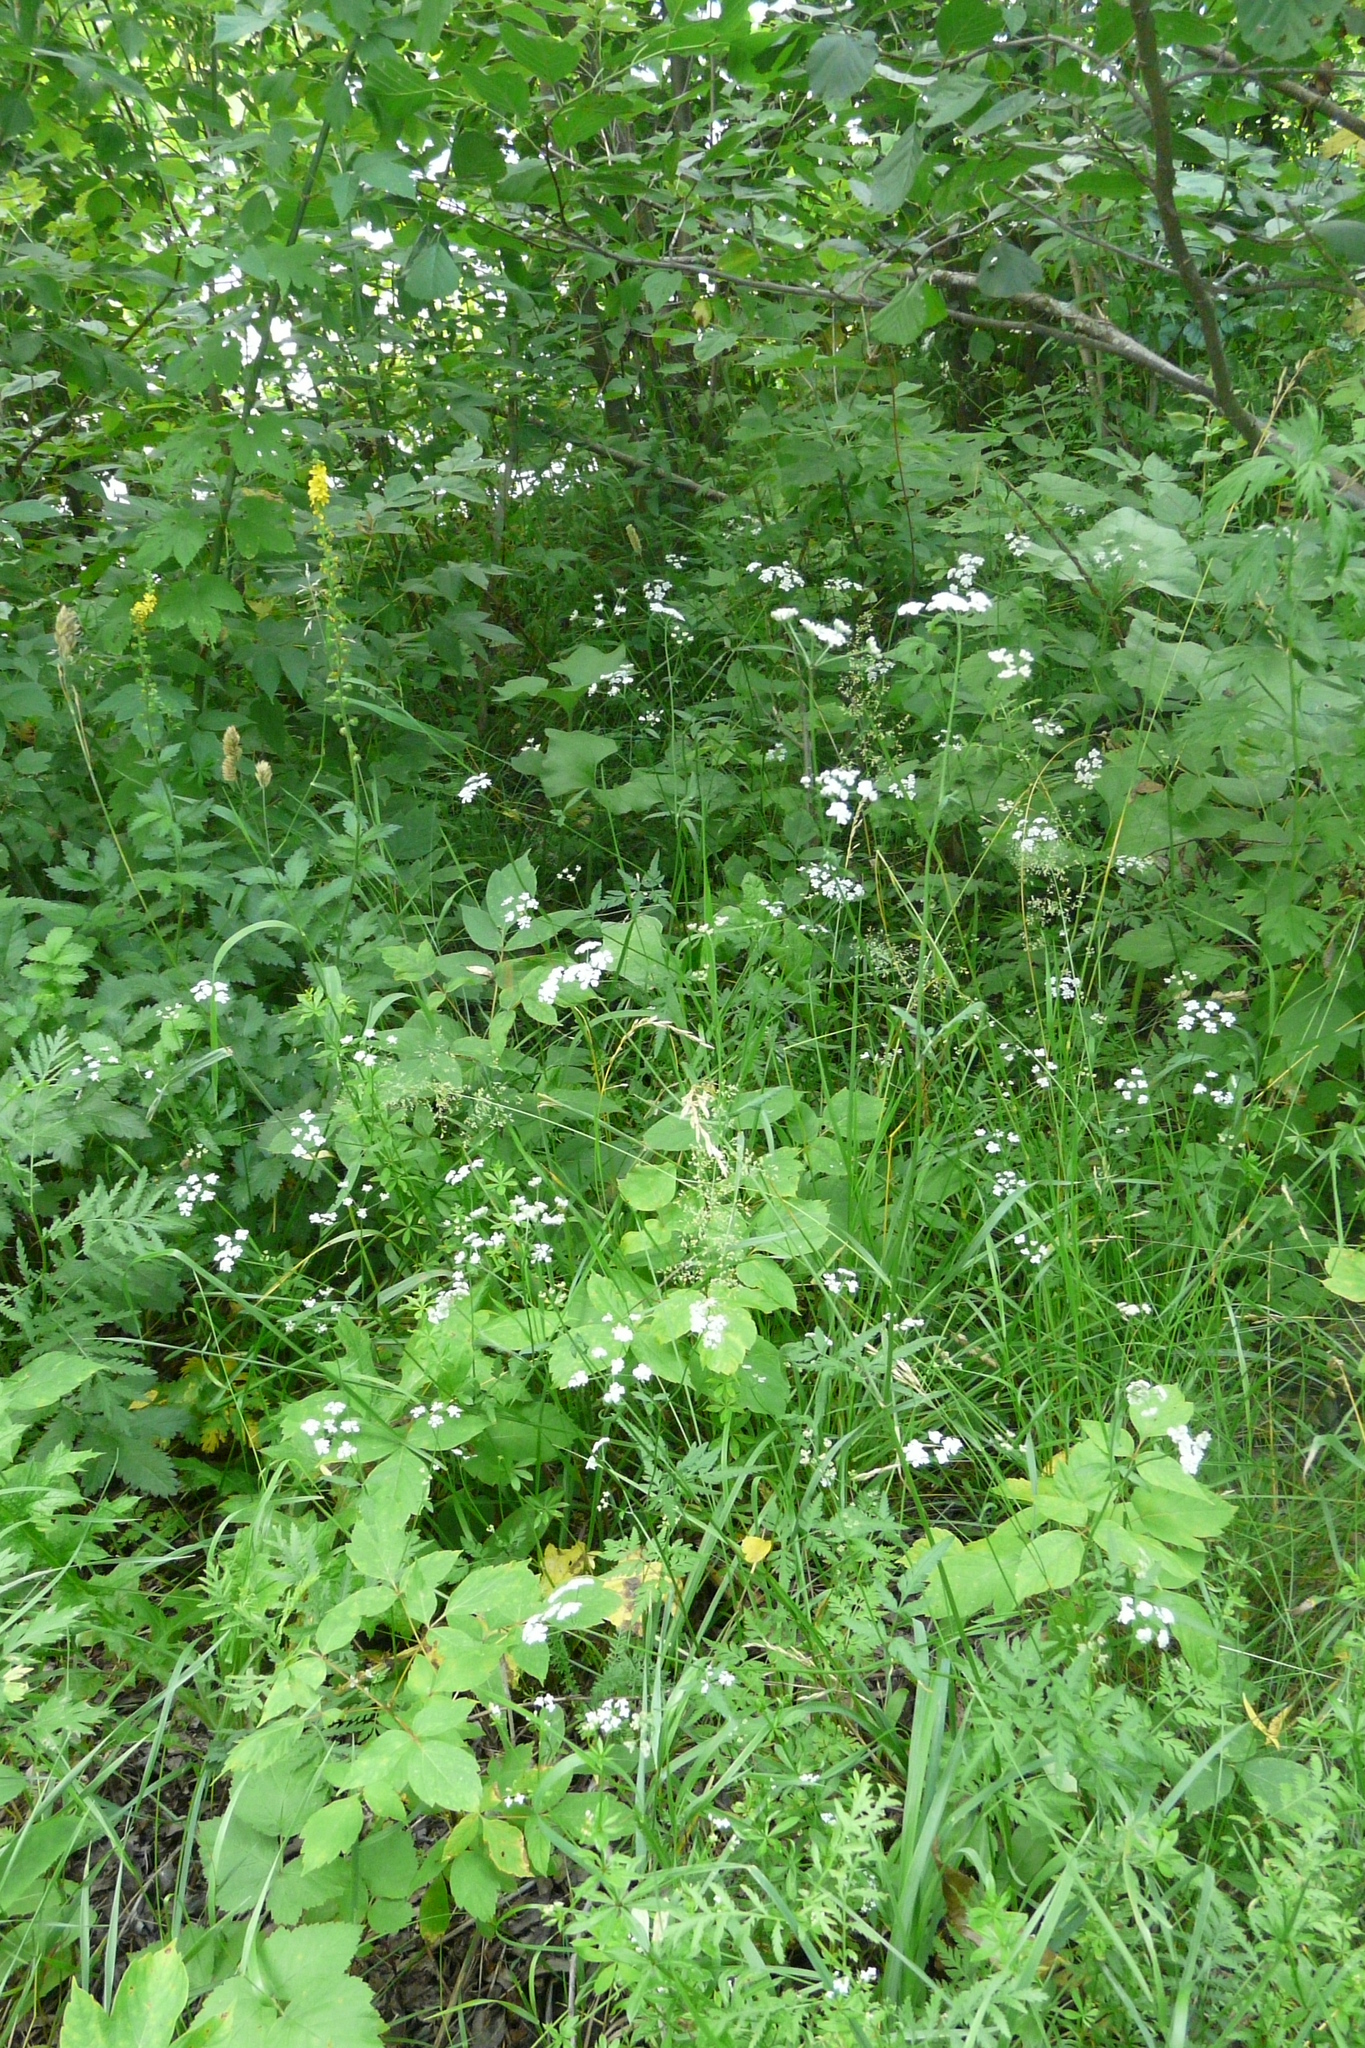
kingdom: Plantae
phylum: Tracheophyta
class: Magnoliopsida
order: Apiales
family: Apiaceae
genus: Torilis
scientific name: Torilis japonica
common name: Upright hedge-parsley
